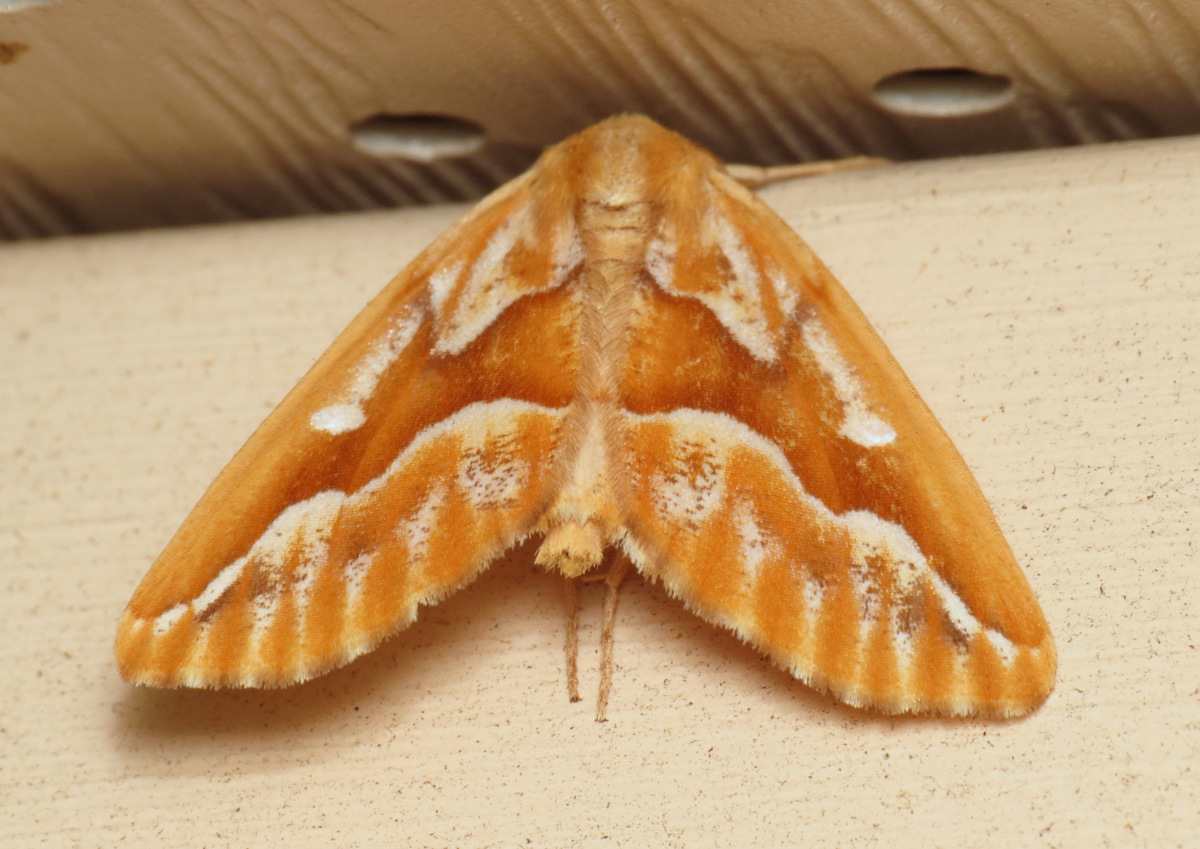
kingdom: Animalia
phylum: Arthropoda
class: Insecta
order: Lepidoptera
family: Geometridae
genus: Caripeta
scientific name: Caripeta piniata
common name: Northern pine looper moth
